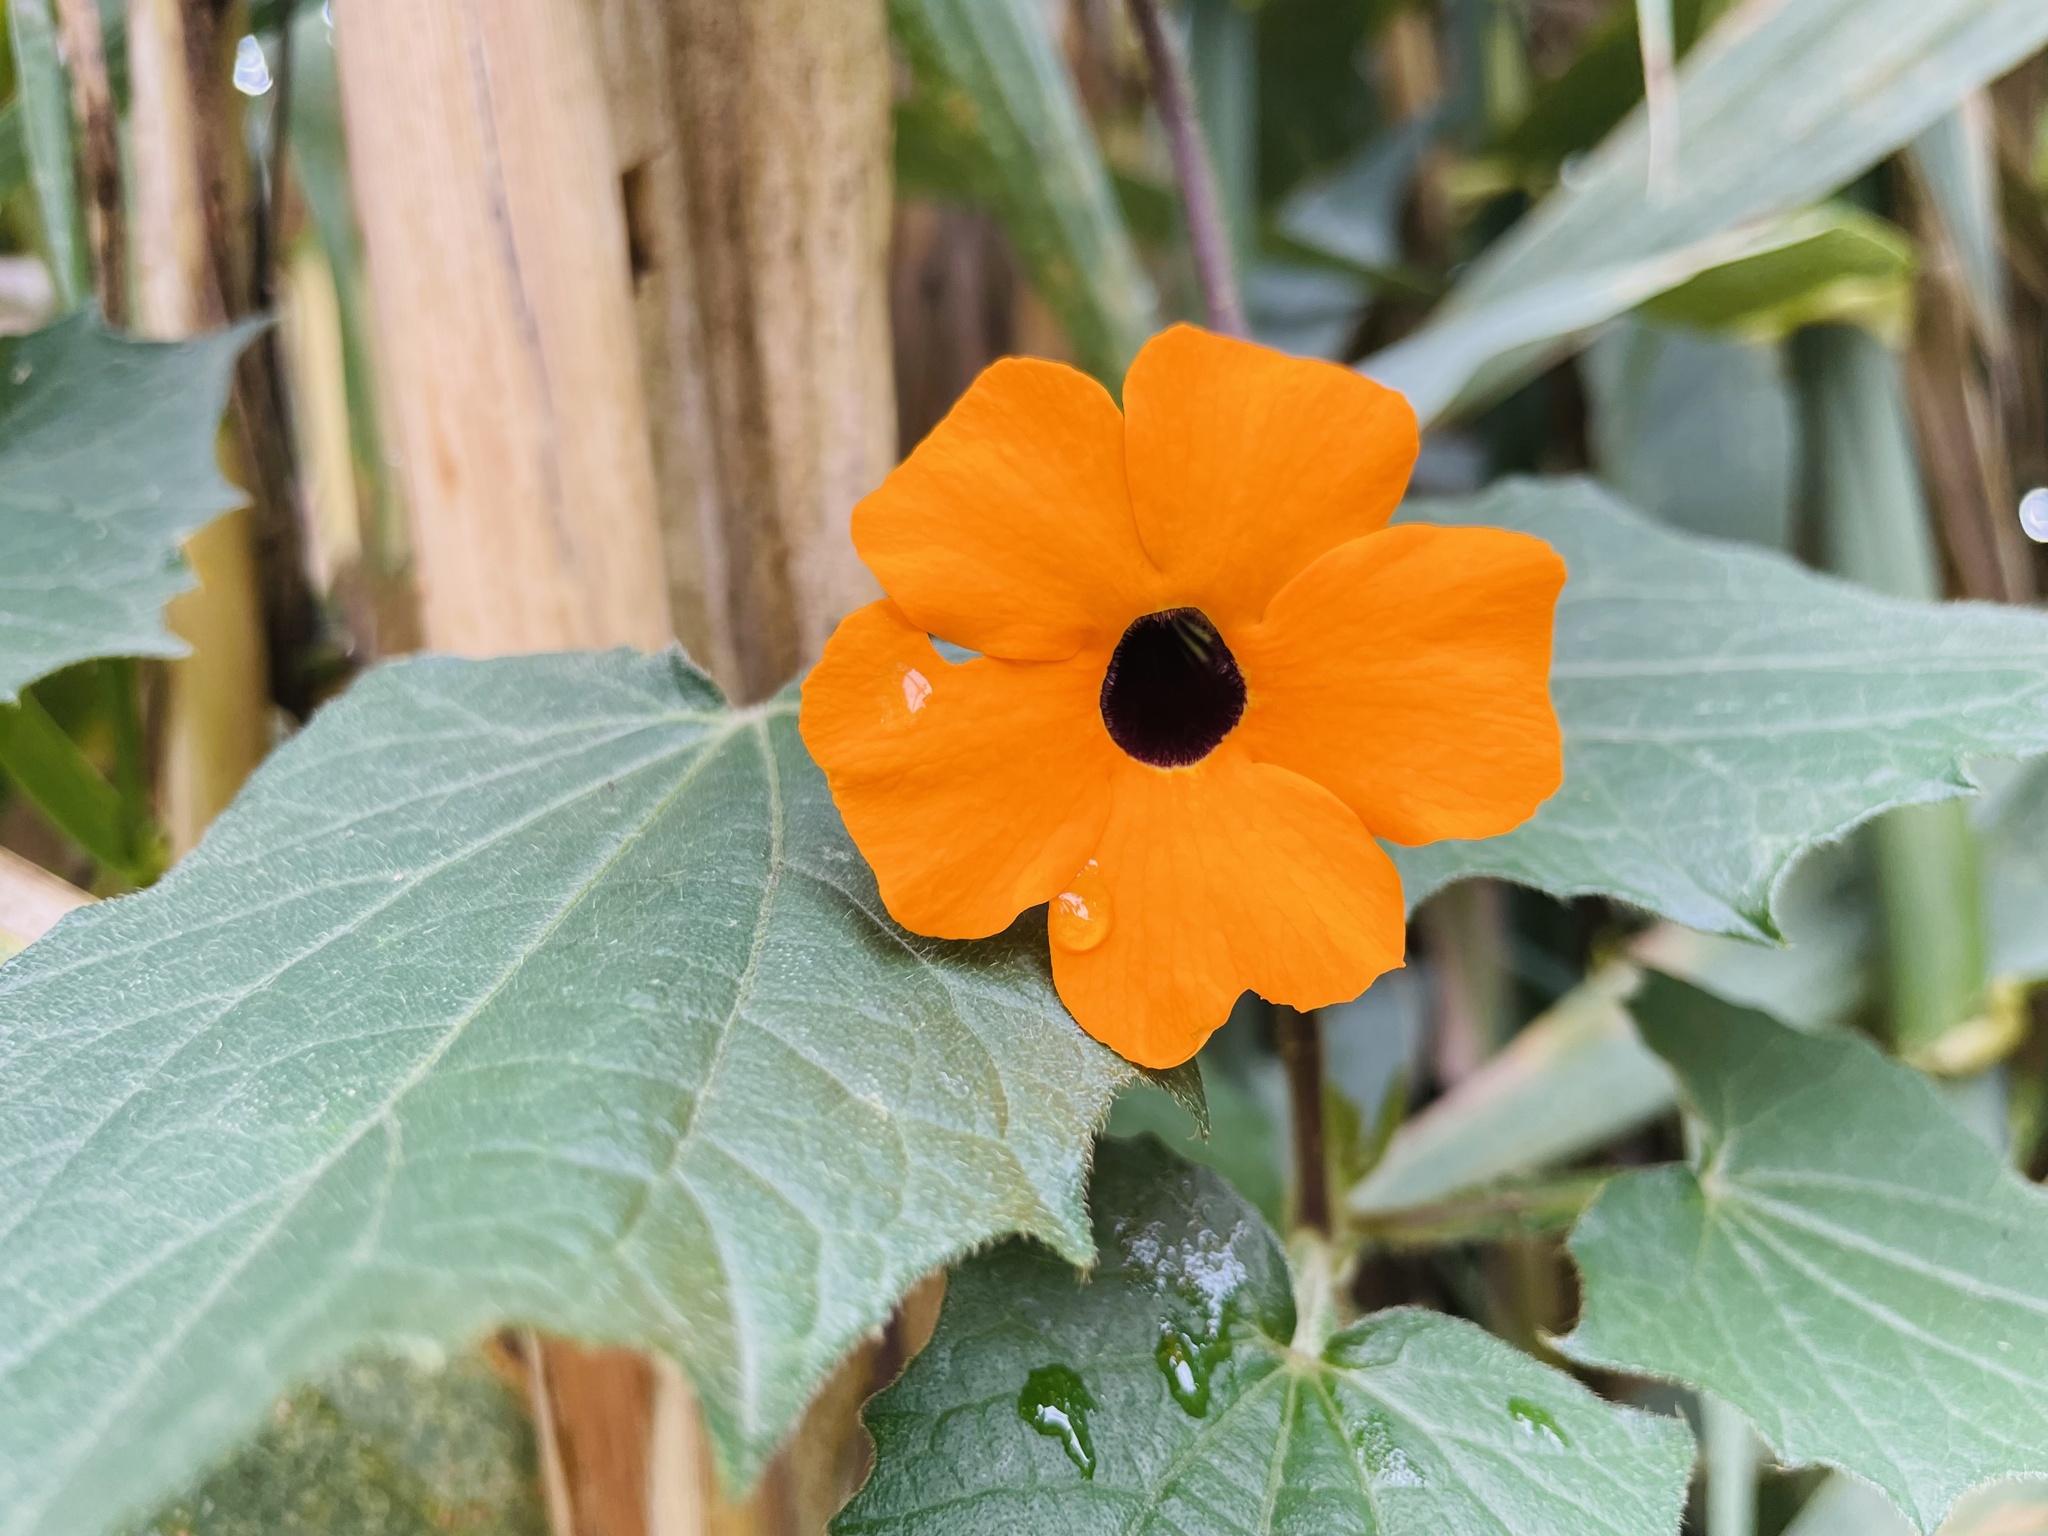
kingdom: Plantae
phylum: Tracheophyta
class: Magnoliopsida
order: Lamiales
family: Acanthaceae
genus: Thunbergia
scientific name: Thunbergia alata
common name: Blackeyed susan vine
